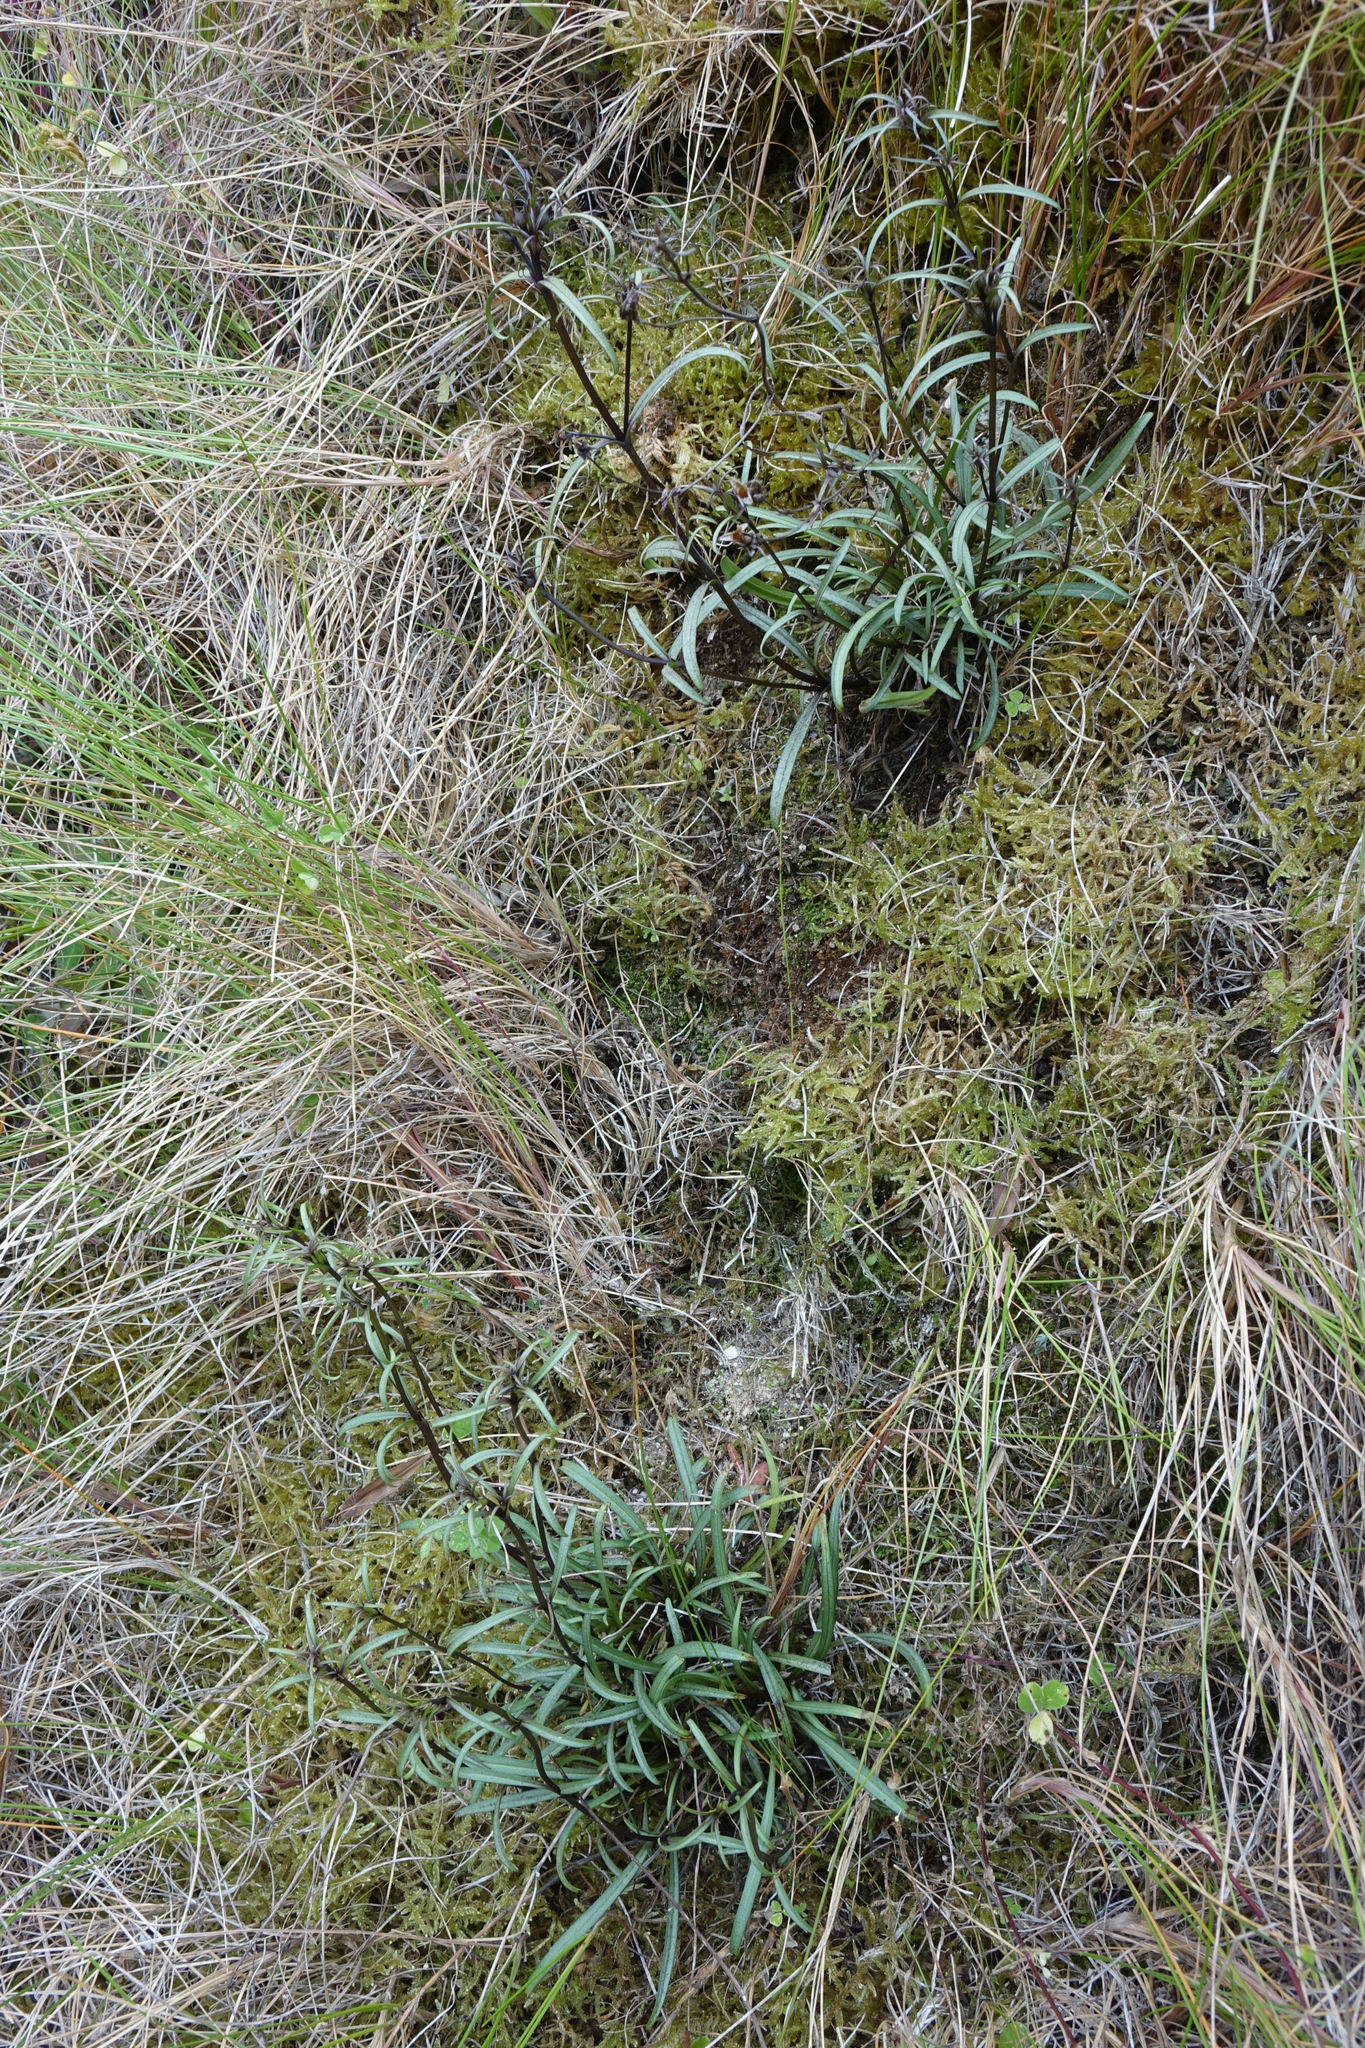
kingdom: Plantae
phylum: Tracheophyta
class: Magnoliopsida
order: Gentianales
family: Gentianaceae
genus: Gentianella
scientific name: Gentianella calcis
